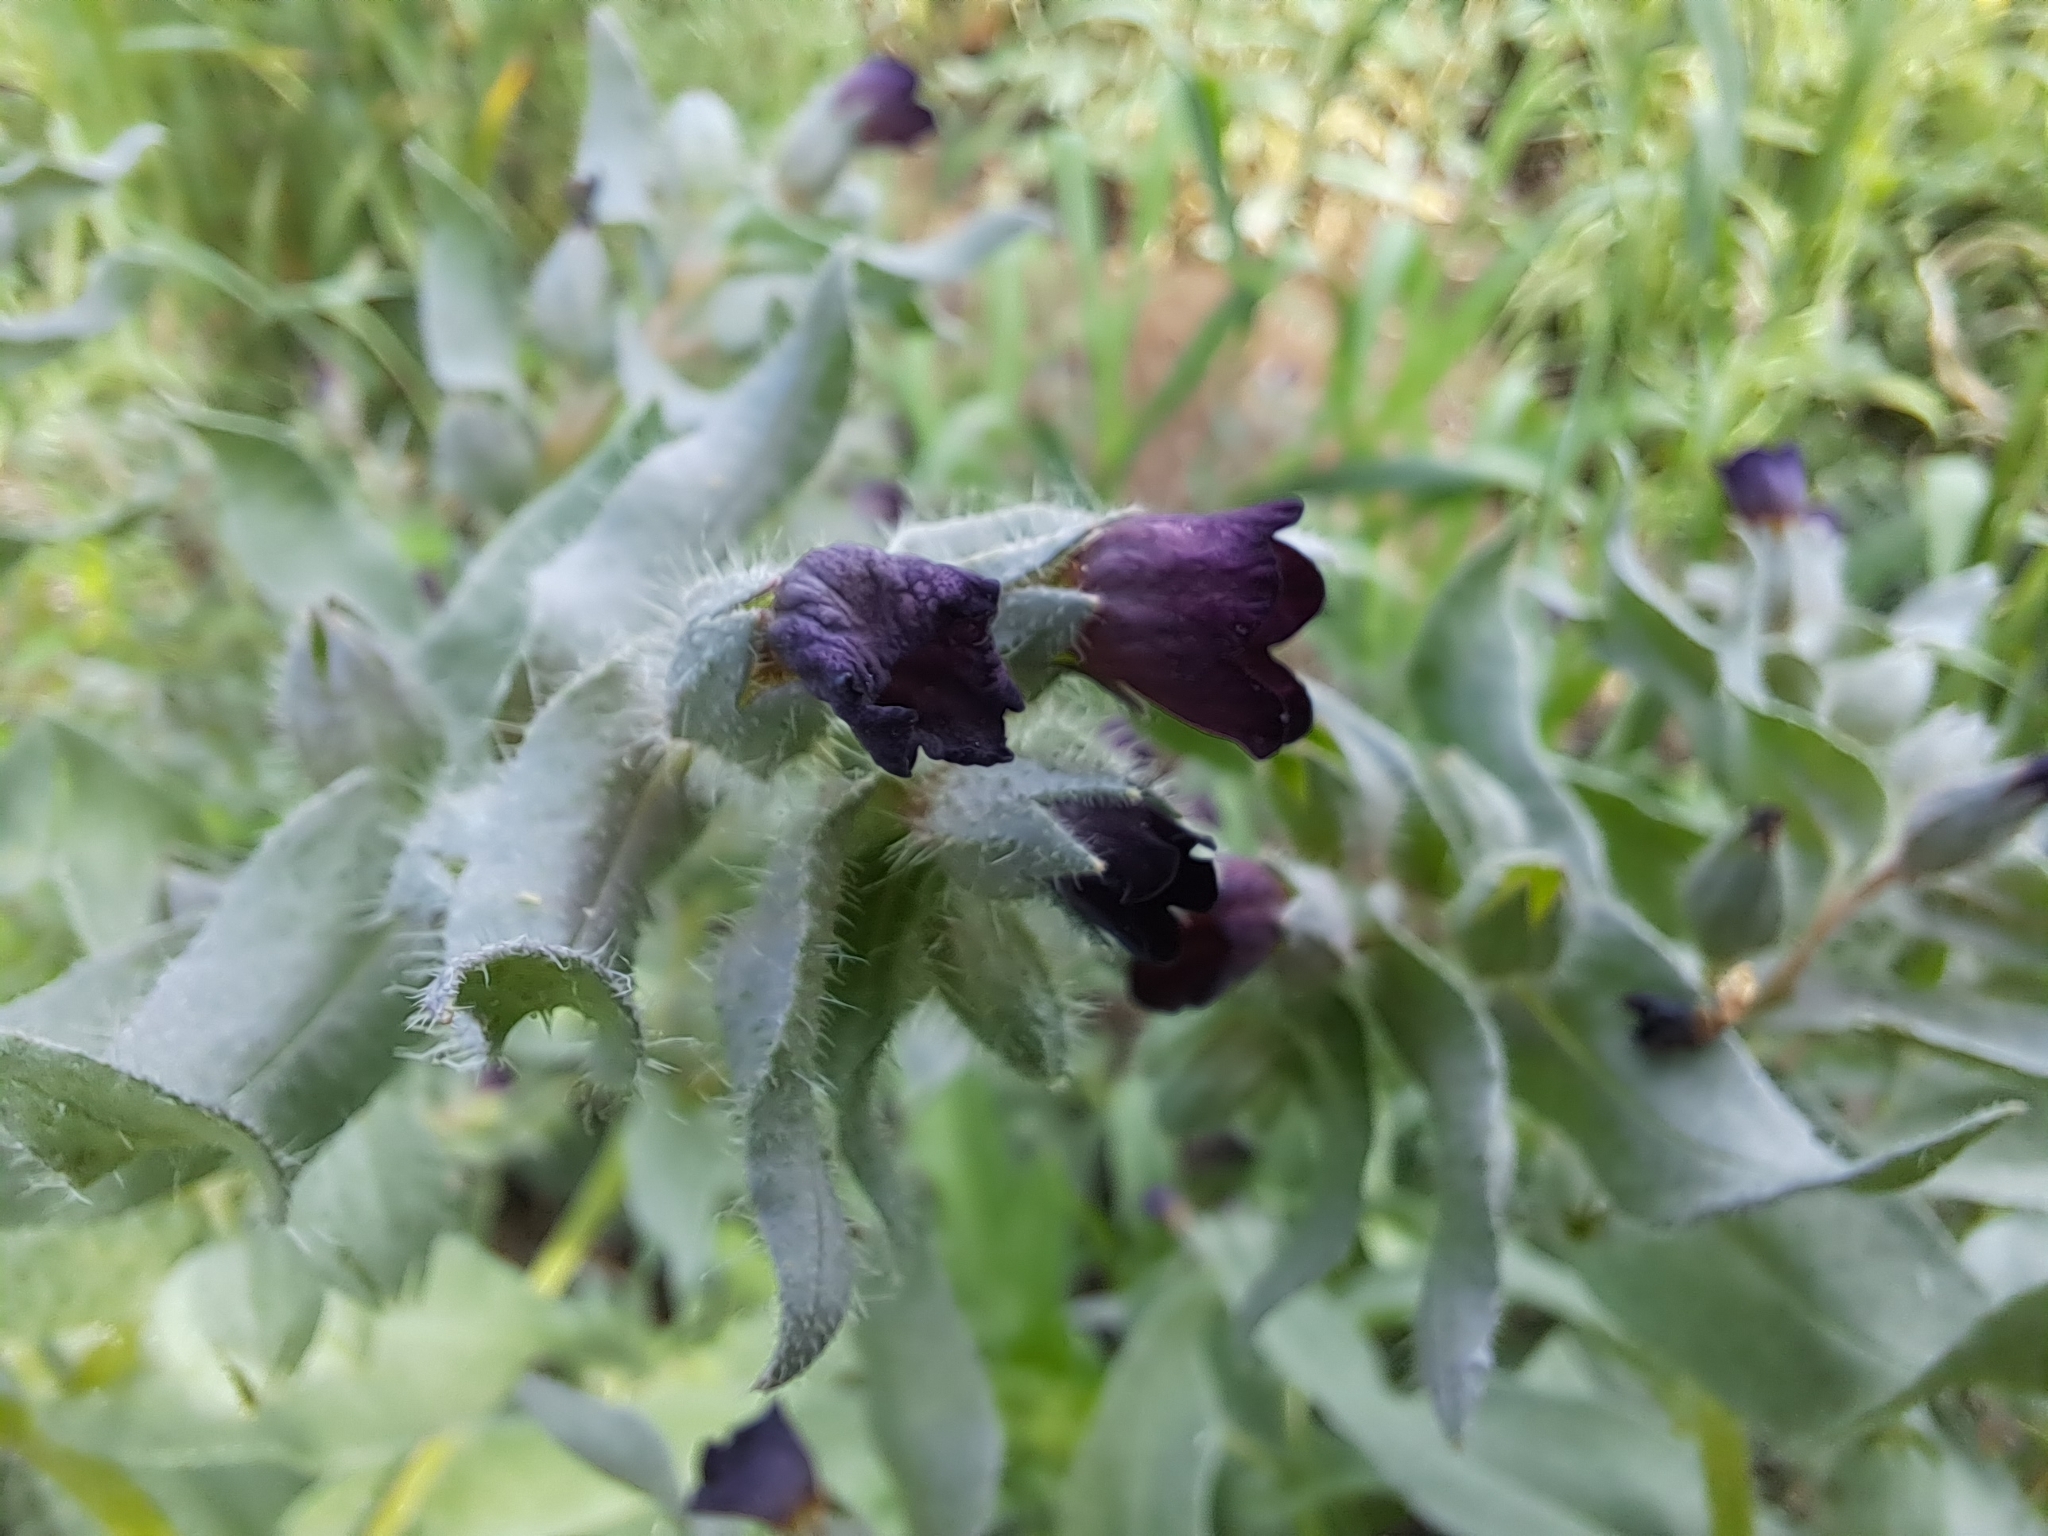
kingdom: Plantae
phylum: Tracheophyta
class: Magnoliopsida
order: Boraginales
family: Boraginaceae
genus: Nonea
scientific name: Nonea pulla
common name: Brown nonea
